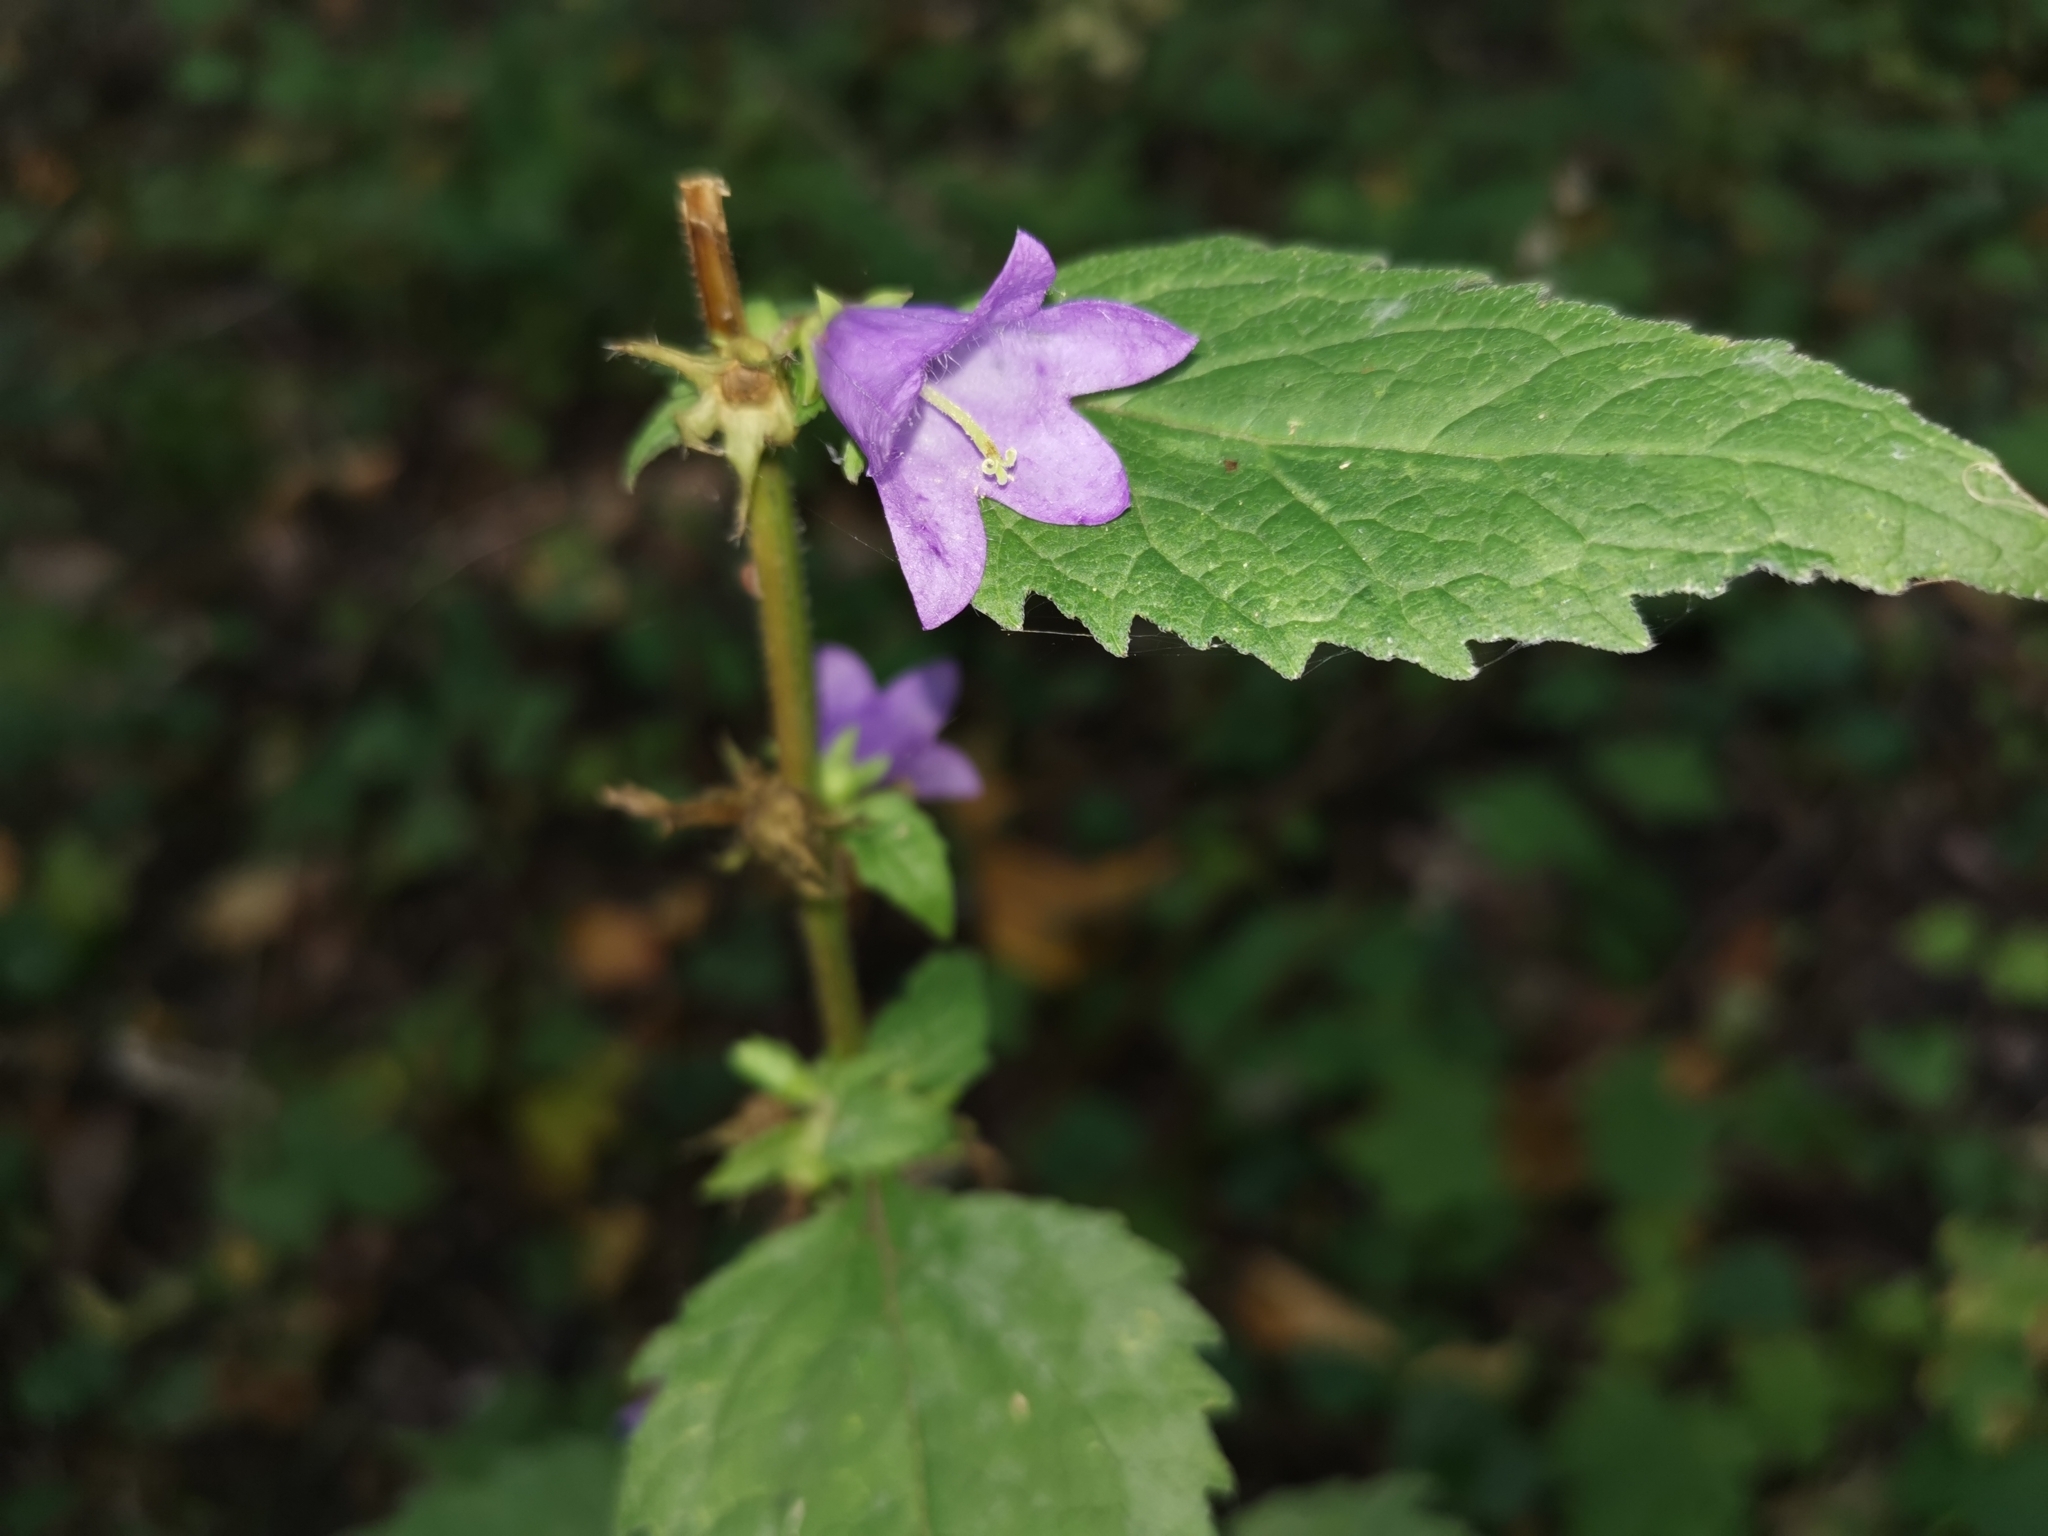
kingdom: Plantae
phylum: Tracheophyta
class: Magnoliopsida
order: Asterales
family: Campanulaceae
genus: Campanula
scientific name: Campanula trachelium
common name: Nettle-leaved bellflower
